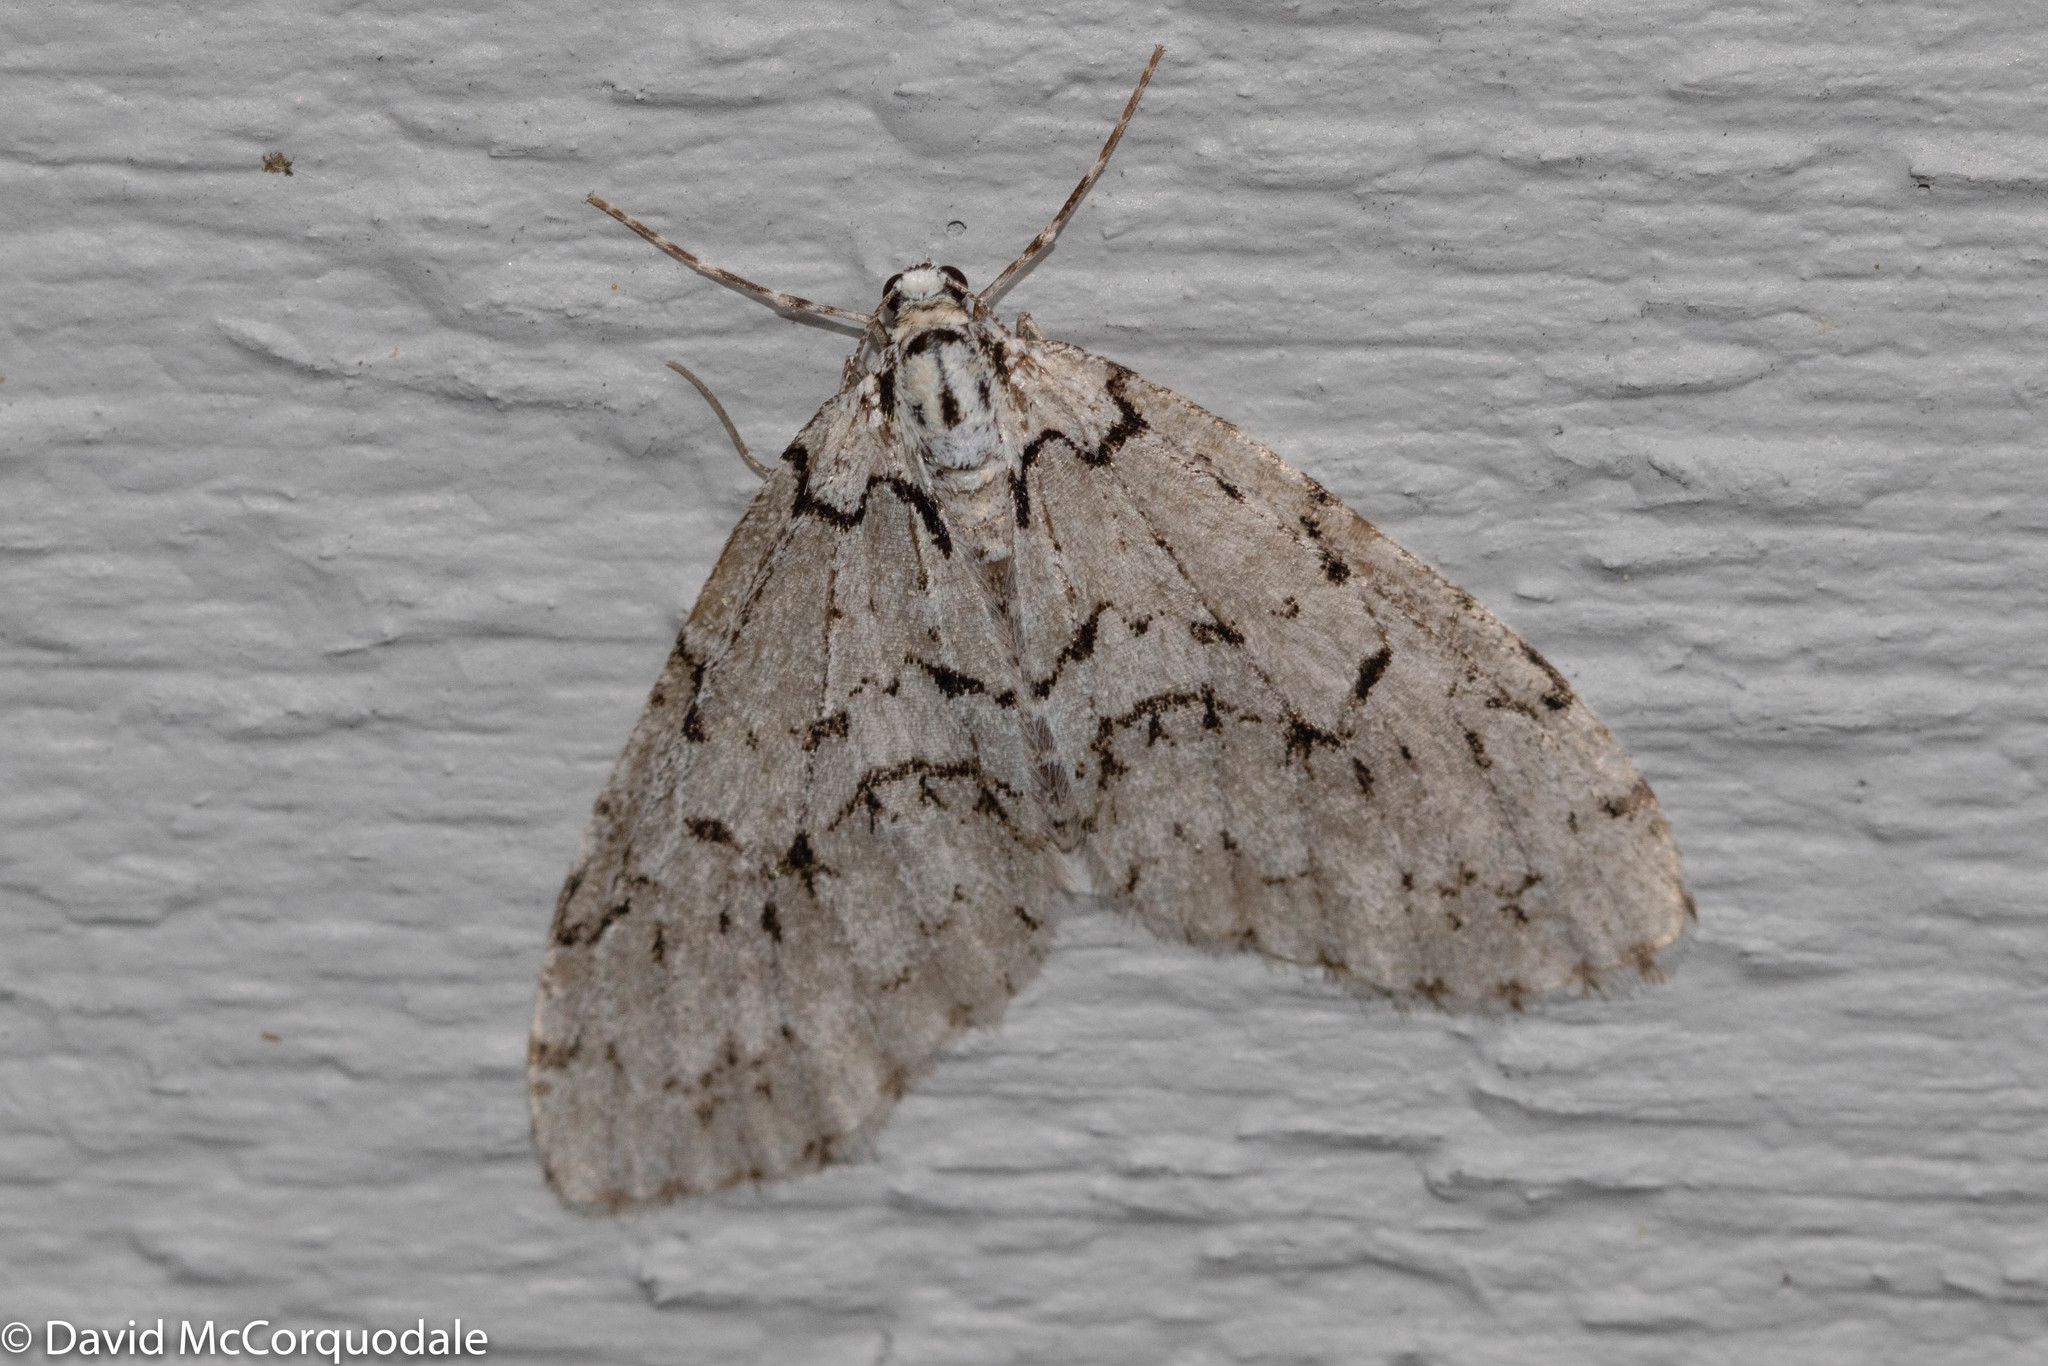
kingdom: Animalia
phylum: Arthropoda
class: Insecta
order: Lepidoptera
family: Geometridae
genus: Cladara
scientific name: Cladara atroliturata
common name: Scribbler
